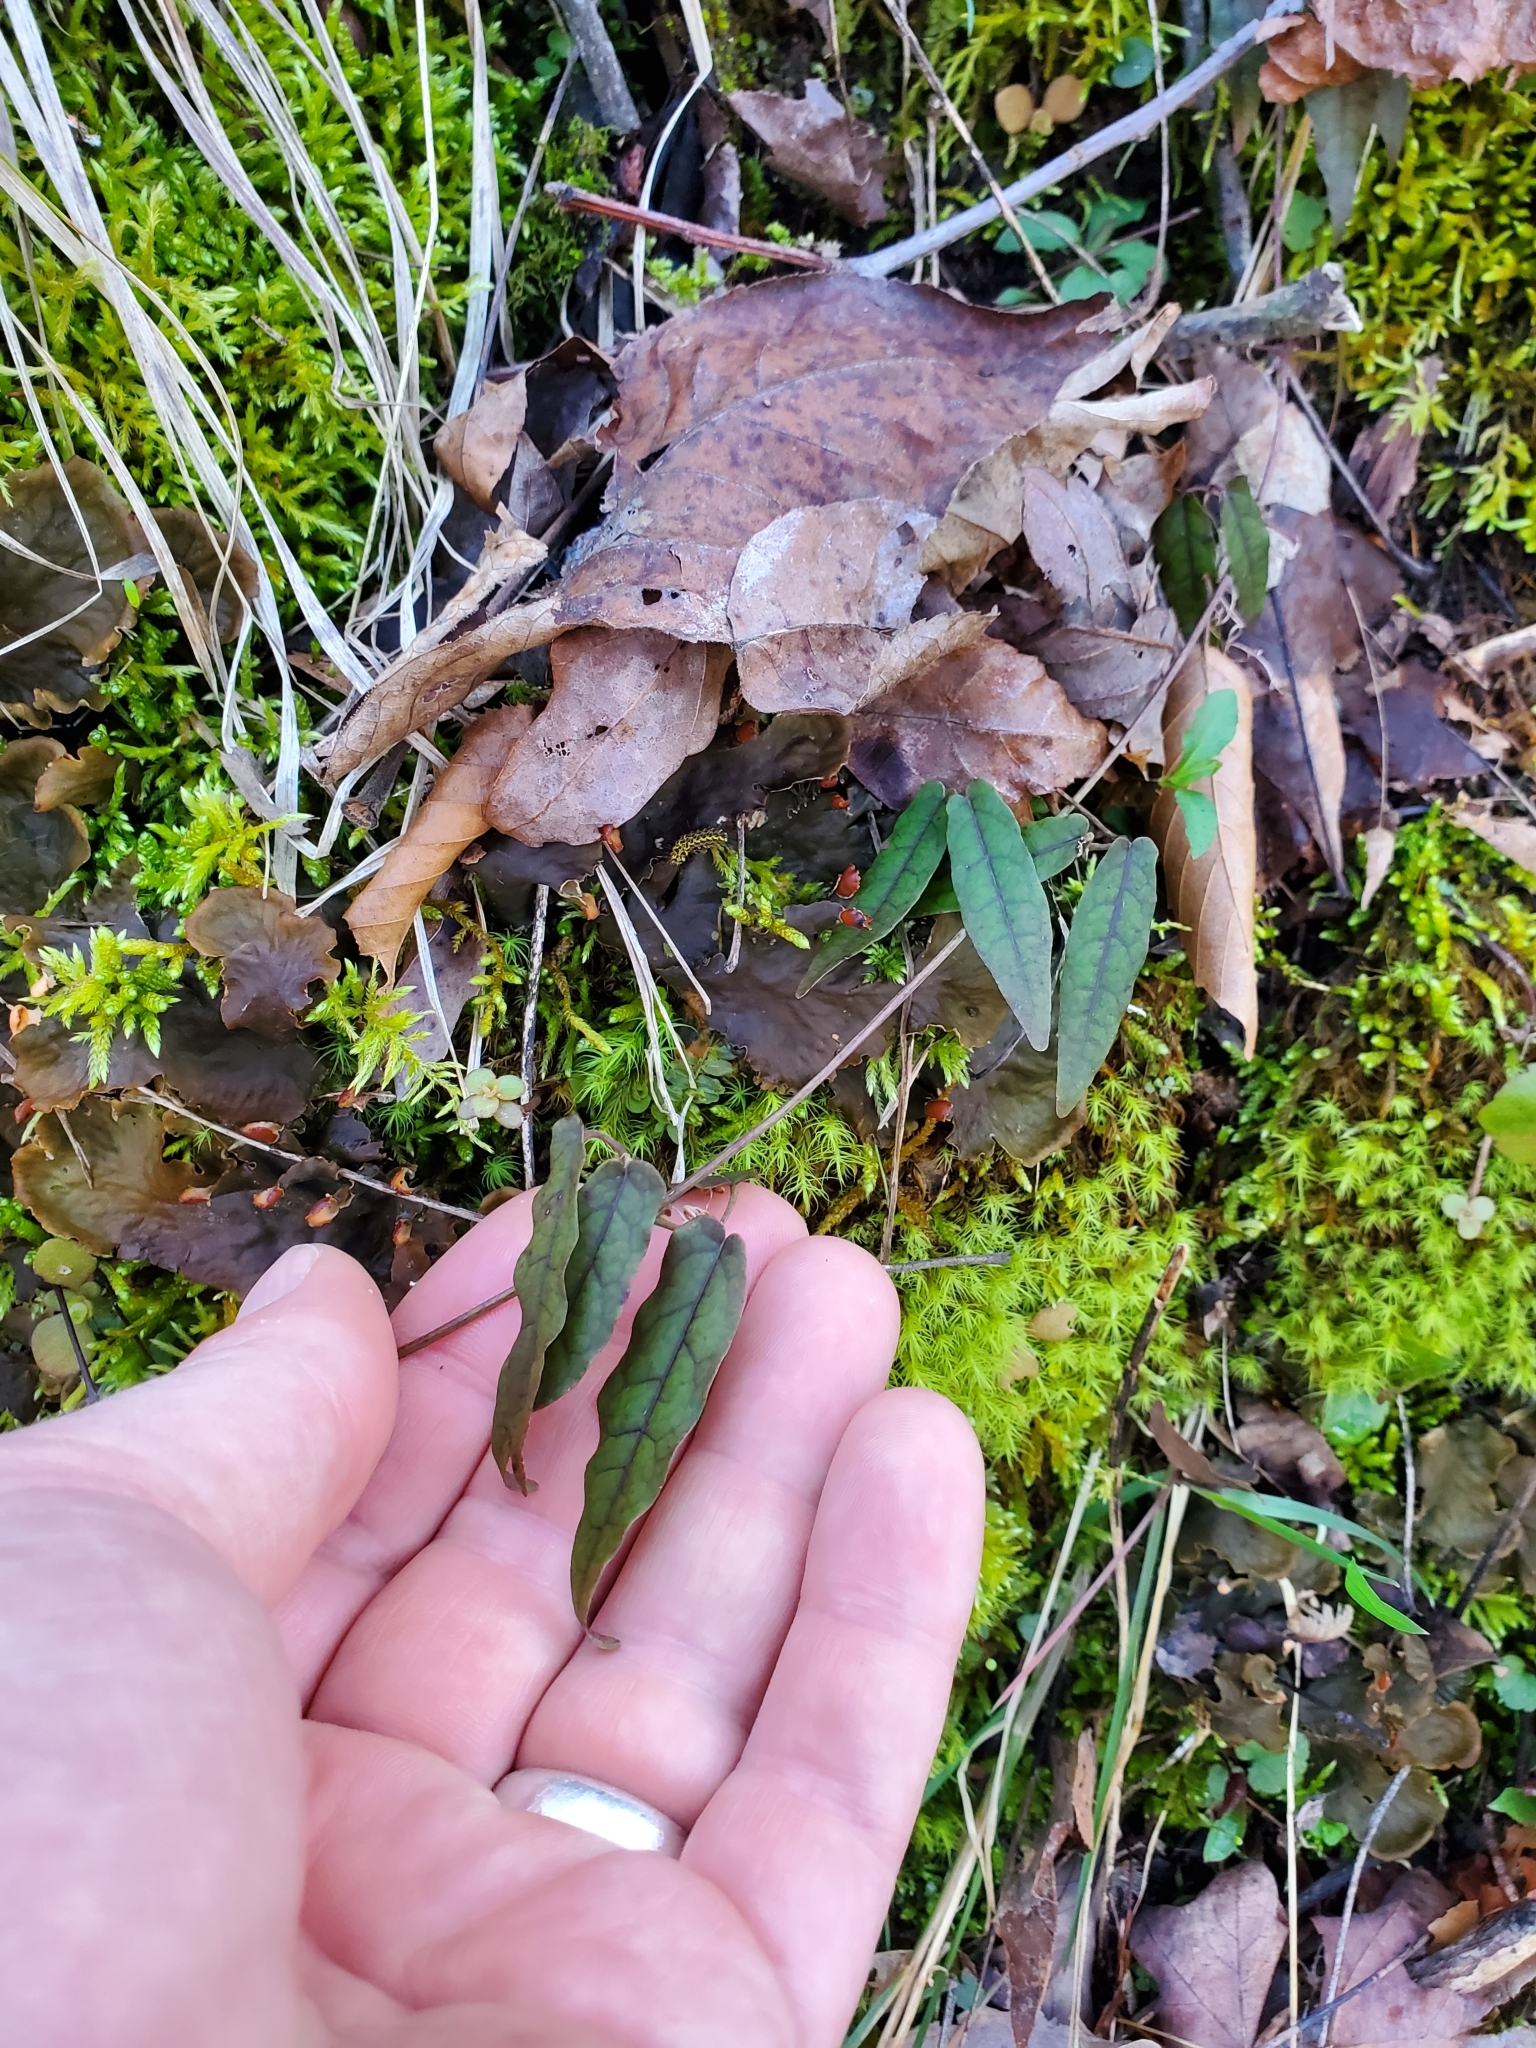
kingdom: Plantae
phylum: Tracheophyta
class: Magnoliopsida
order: Lamiales
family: Bignoniaceae
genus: Bignonia
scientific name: Bignonia capreolata
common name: Crossvine
